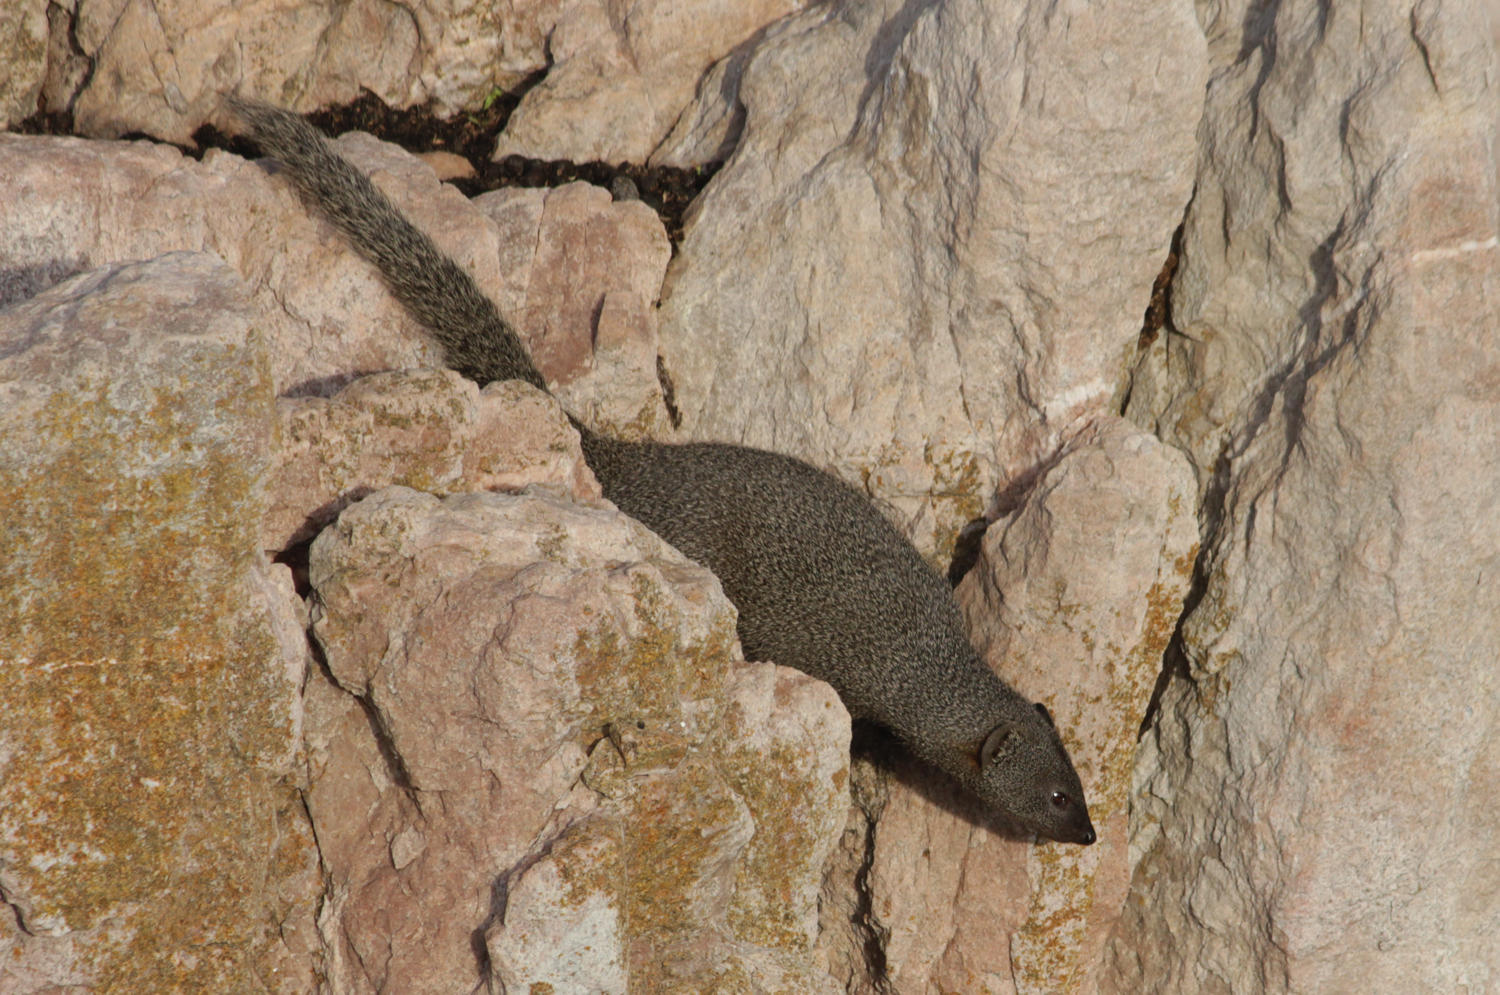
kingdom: Animalia
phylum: Chordata
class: Mammalia
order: Carnivora
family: Herpestidae
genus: Galerella
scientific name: Galerella pulverulenta
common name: Cape gray mongoose
